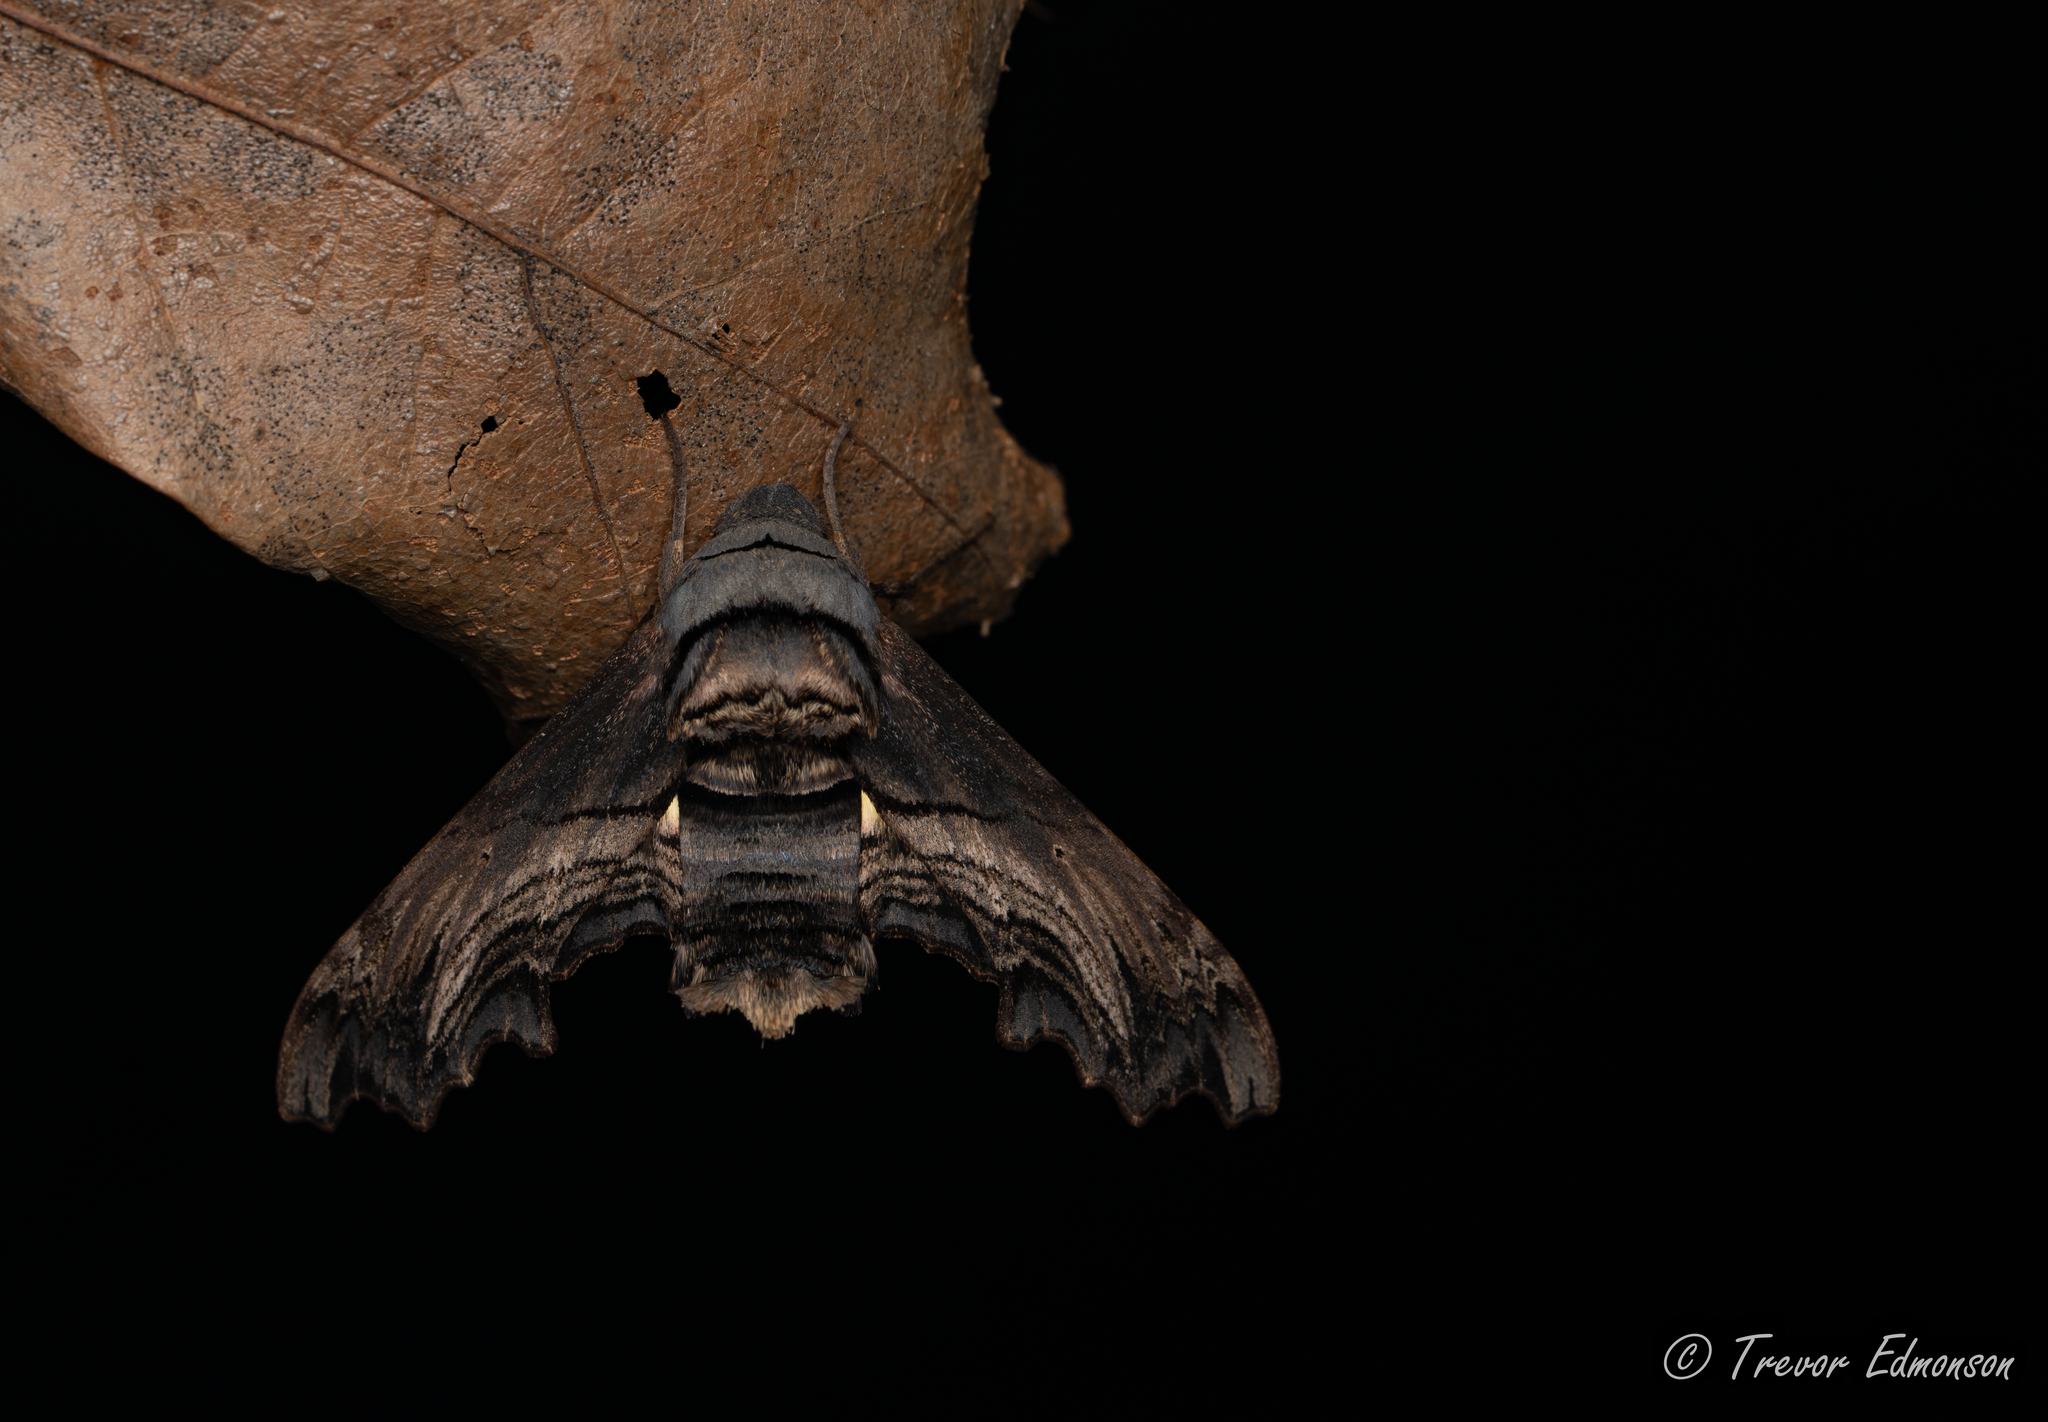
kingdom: Animalia
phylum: Arthropoda
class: Insecta
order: Lepidoptera
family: Sphingidae
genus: Sphecodina
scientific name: Sphecodina abbottii
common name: Abbott's sphinx
